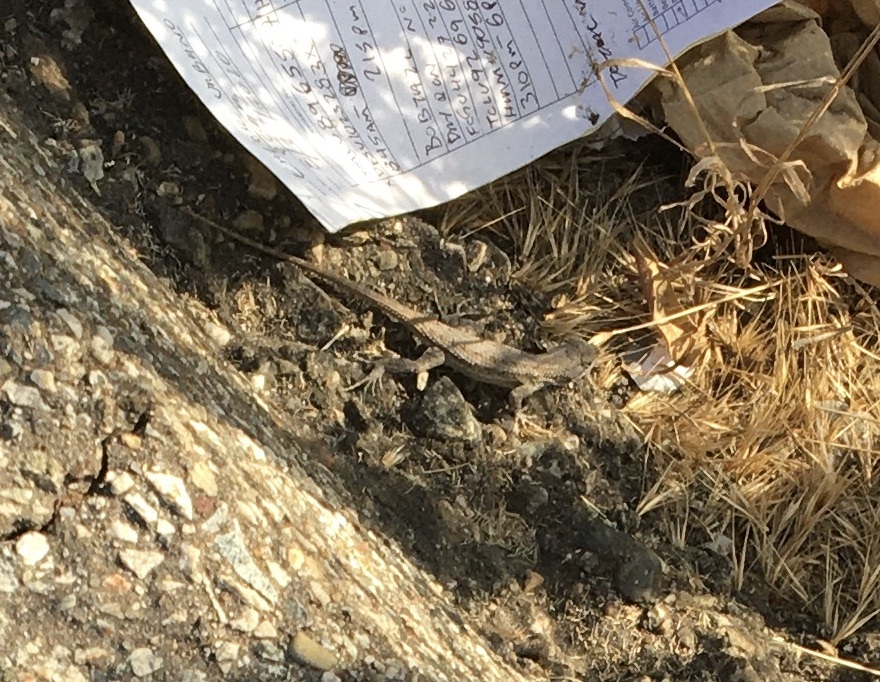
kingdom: Animalia
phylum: Chordata
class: Squamata
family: Phrynosomatidae
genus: Sceloporus
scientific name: Sceloporus occidentalis
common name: Western fence lizard
